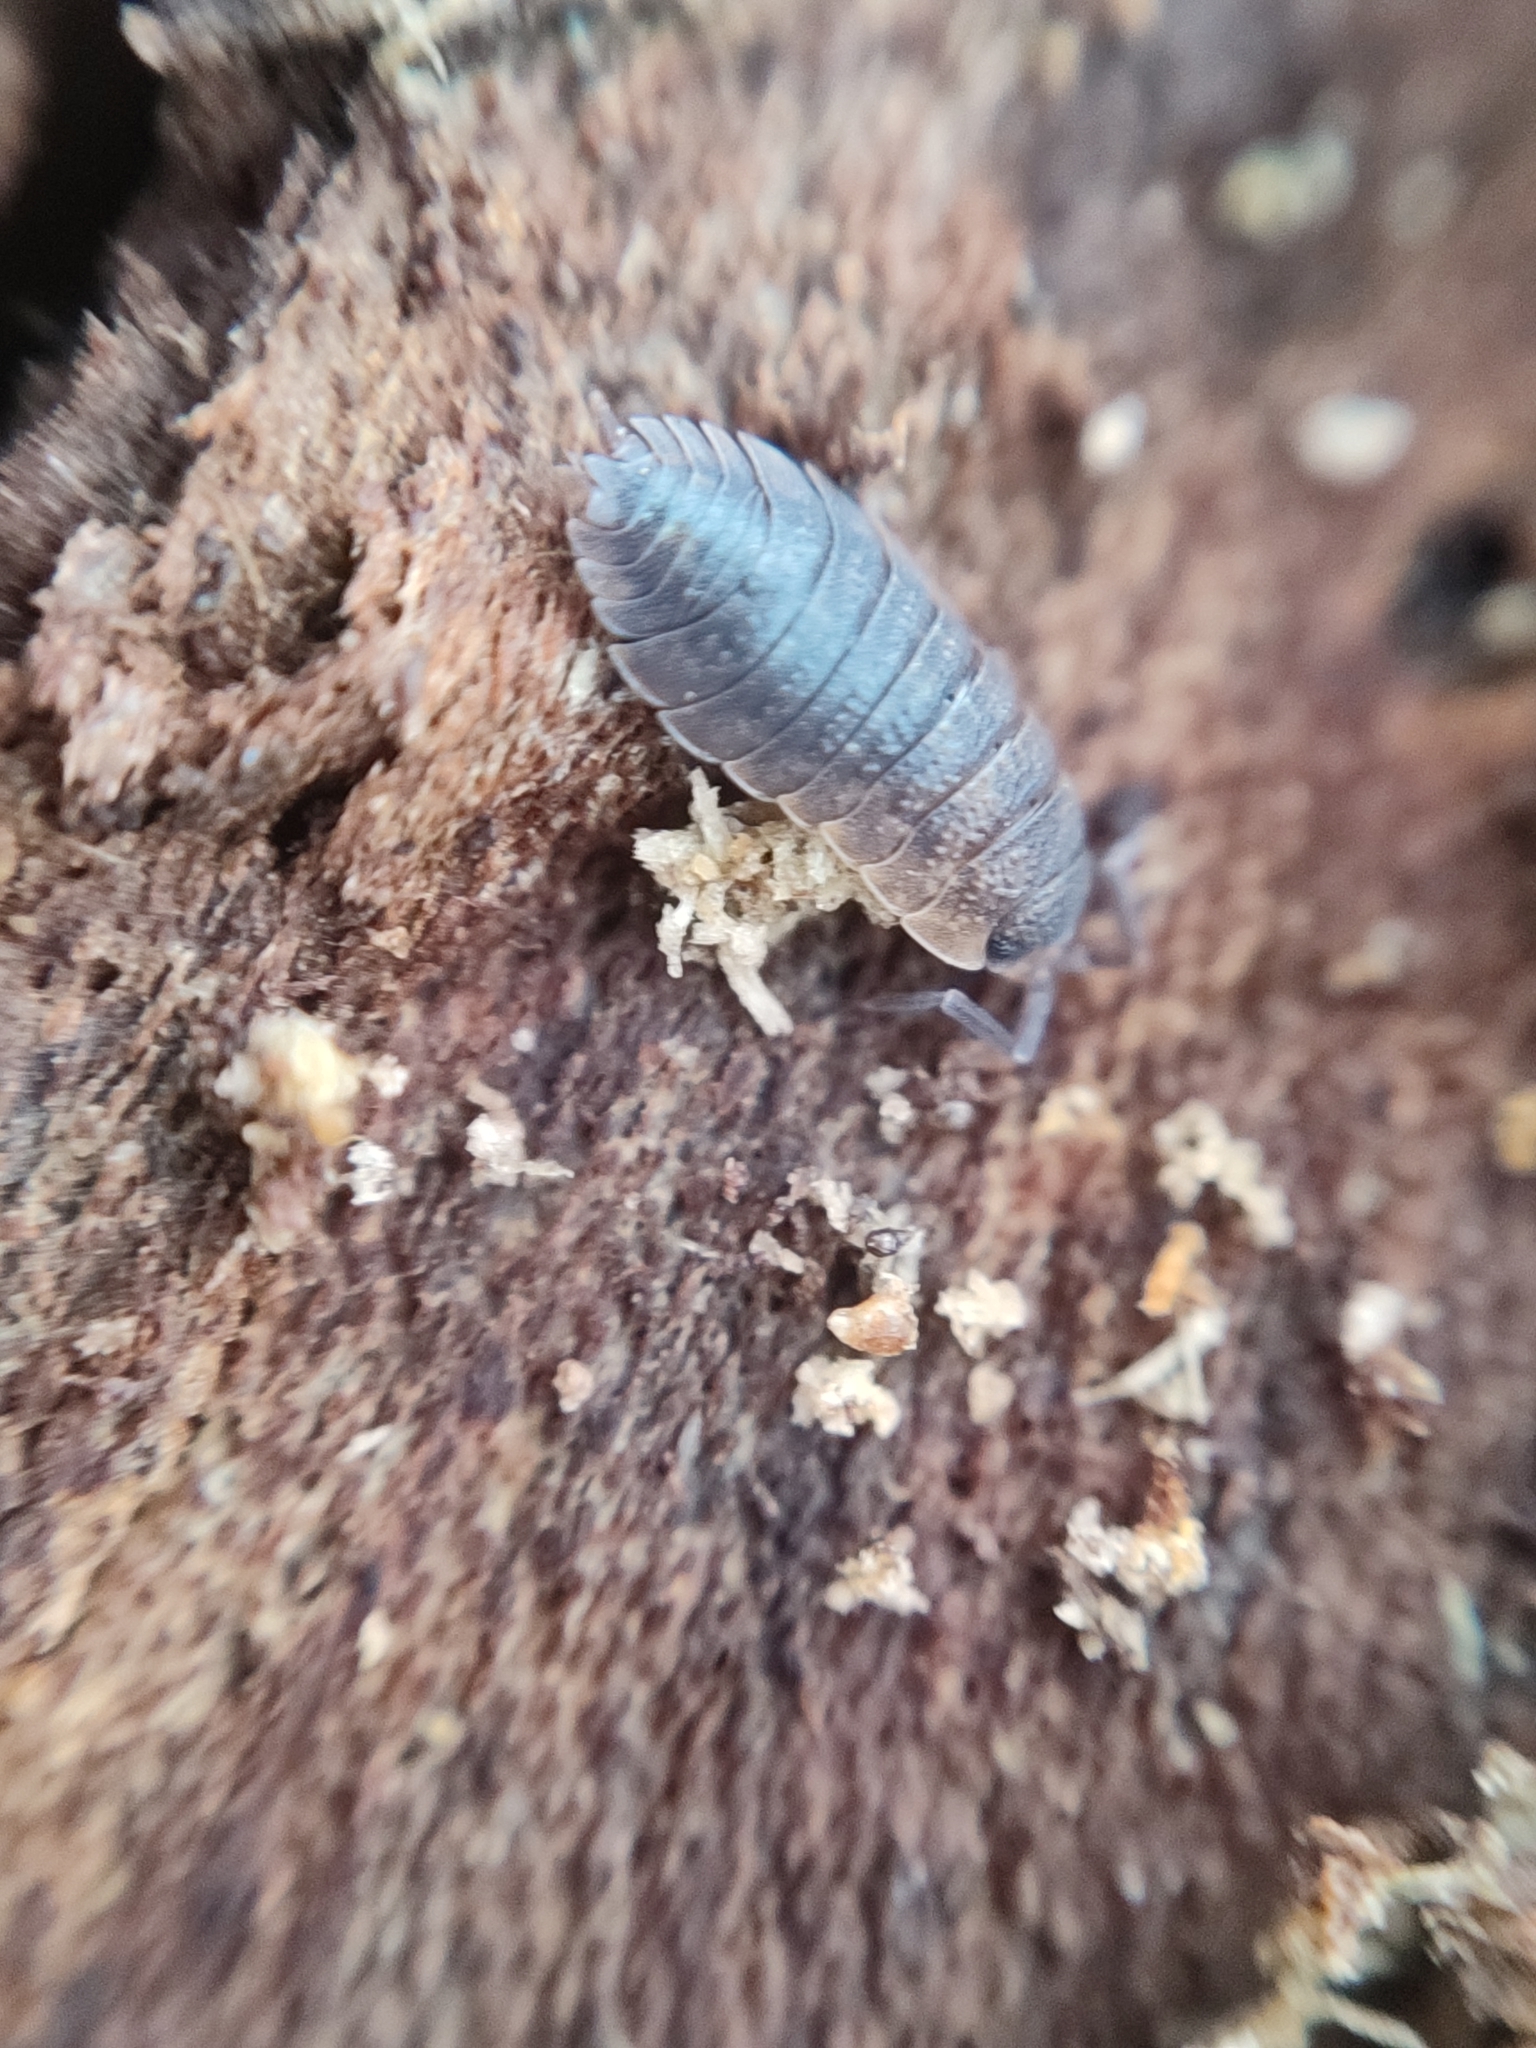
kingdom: Animalia
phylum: Arthropoda
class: Malacostraca
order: Isopoda
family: Porcellionidae
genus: Porcellio
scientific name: Porcellio scaber
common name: Common rough woodlouse
